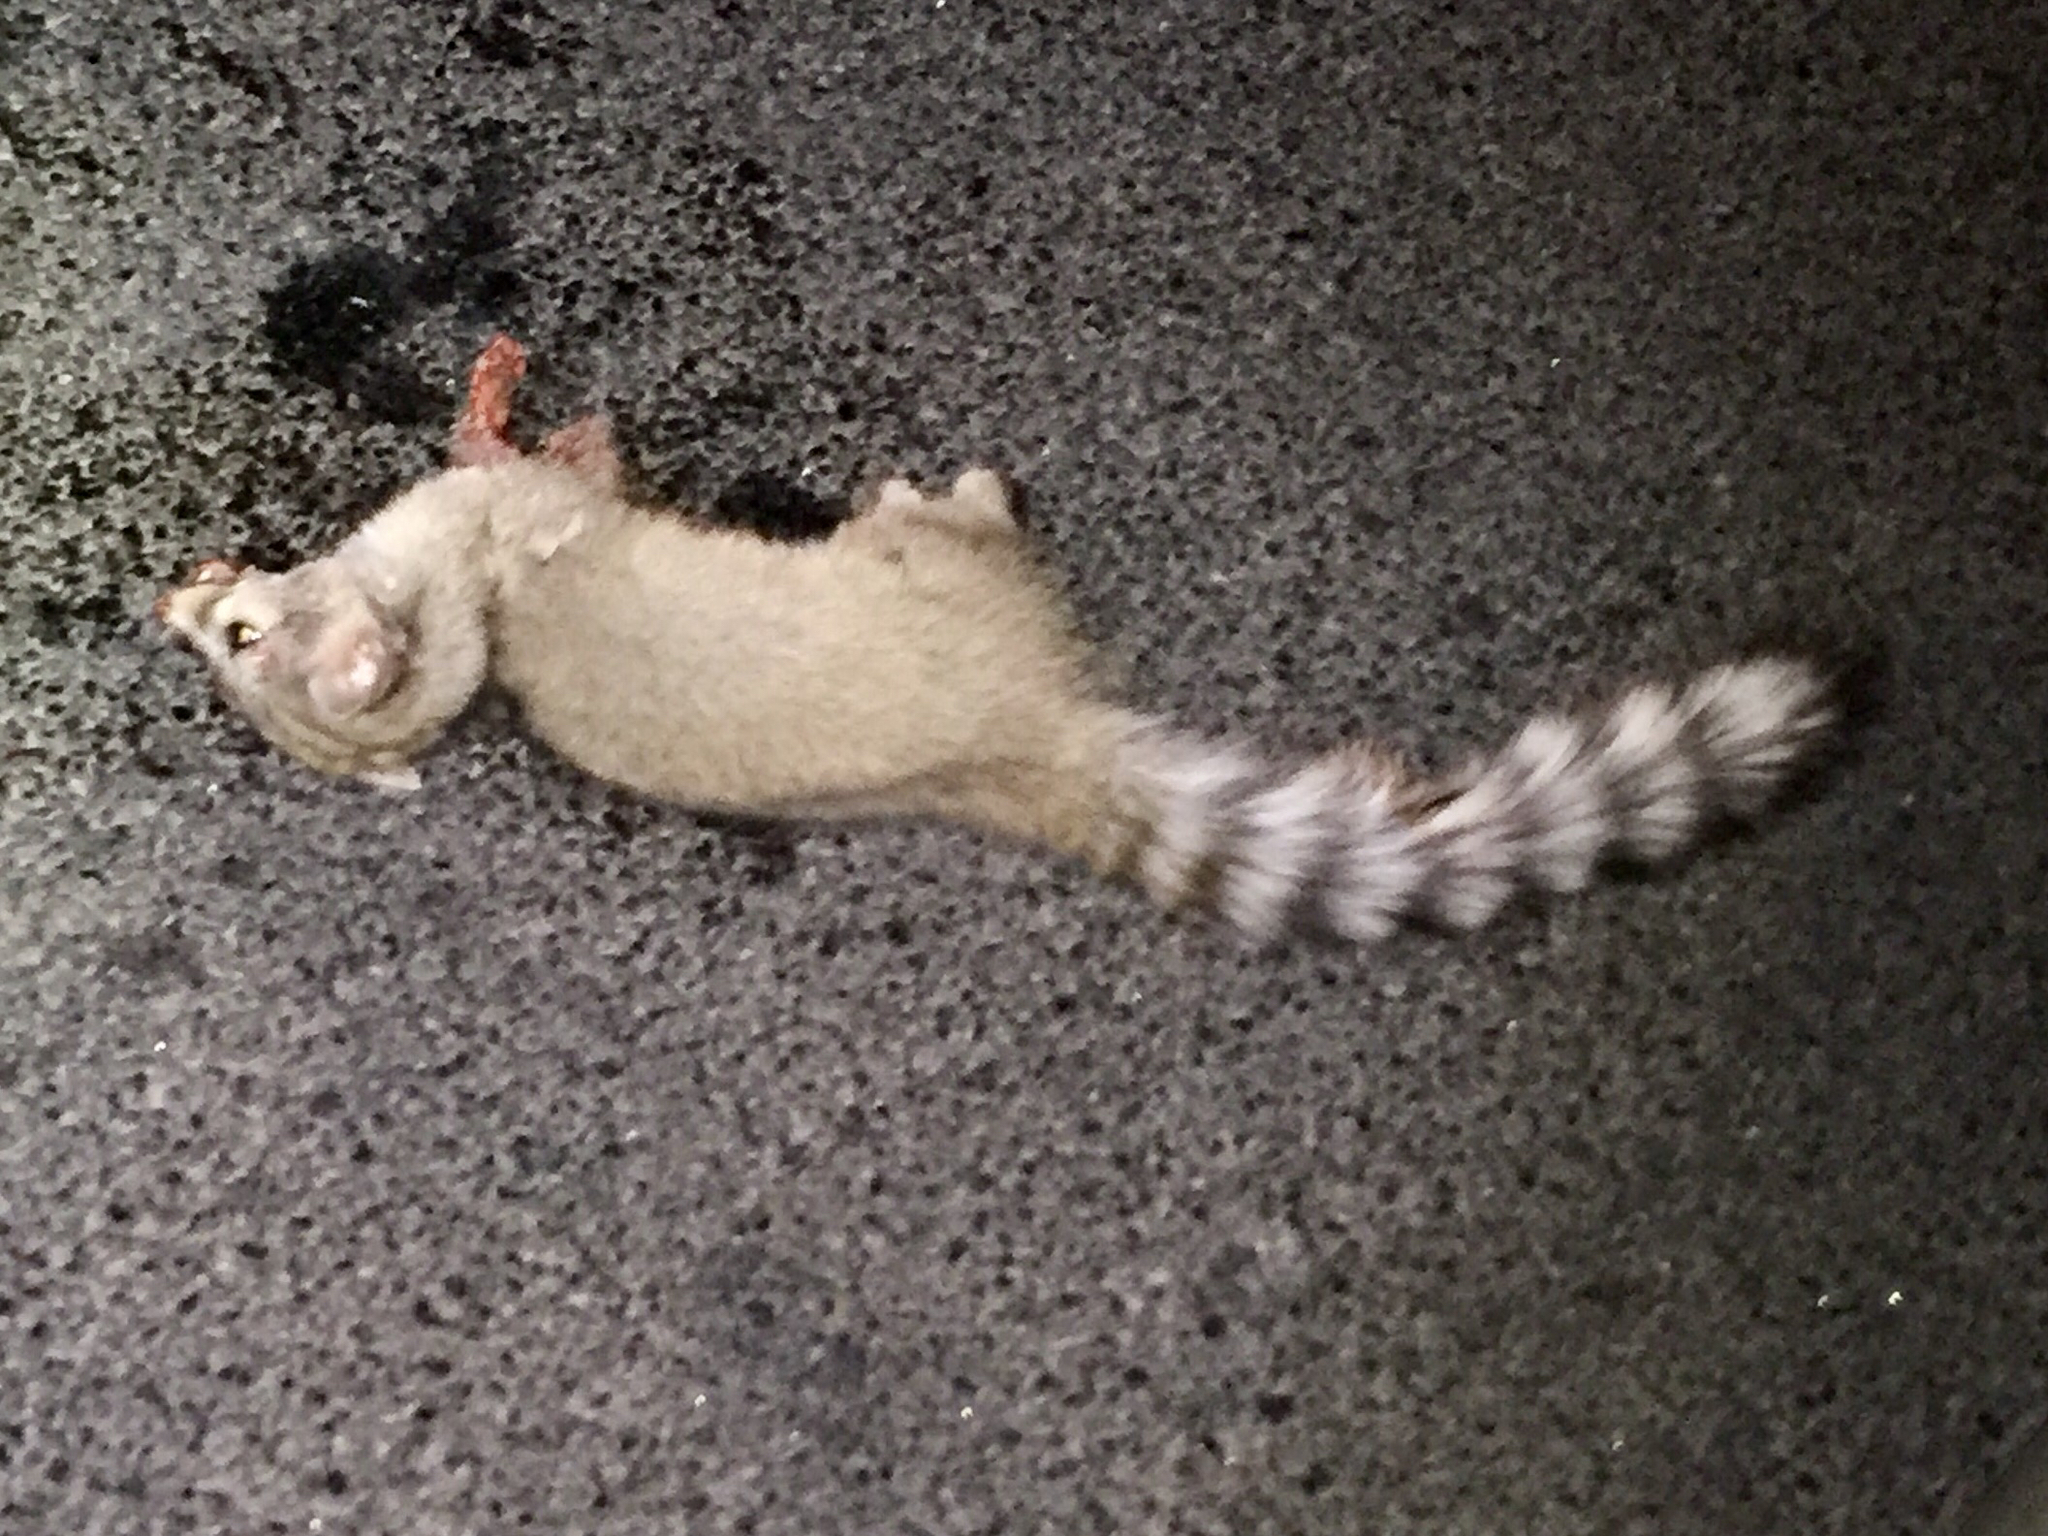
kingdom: Animalia
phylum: Chordata
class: Mammalia
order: Carnivora
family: Procyonidae
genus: Bassariscus
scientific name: Bassariscus astutus
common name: Ringtail
